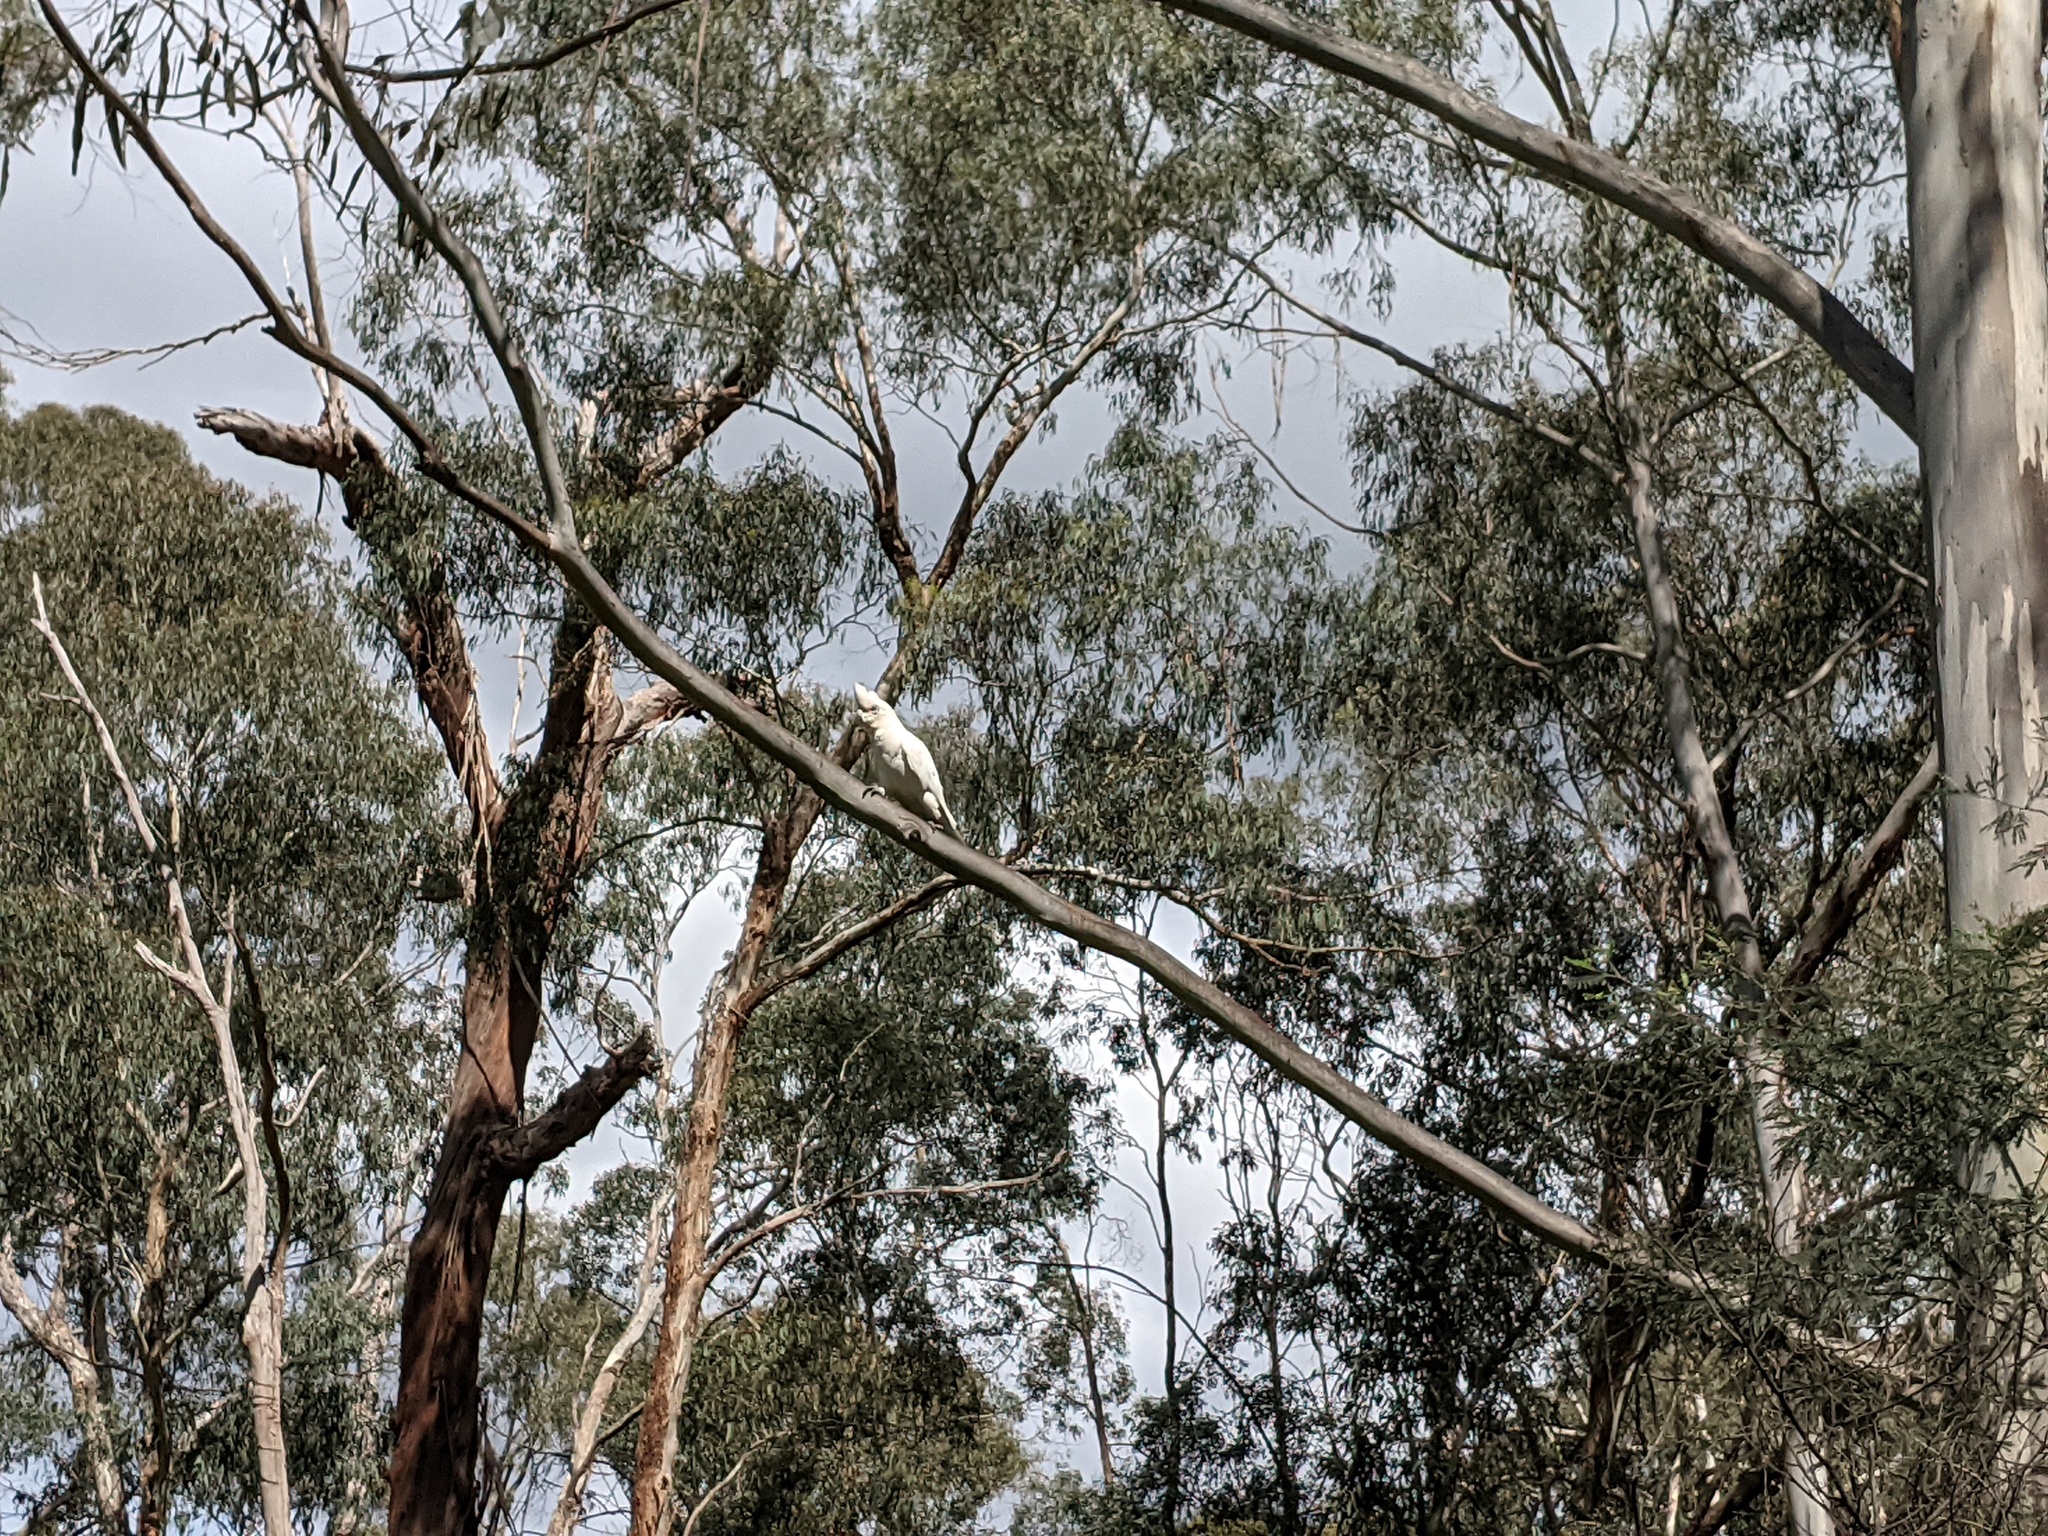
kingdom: Animalia
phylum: Chordata
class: Aves
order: Psittaciformes
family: Psittacidae
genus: Cacatua
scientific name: Cacatua sanguinea
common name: Little corella
